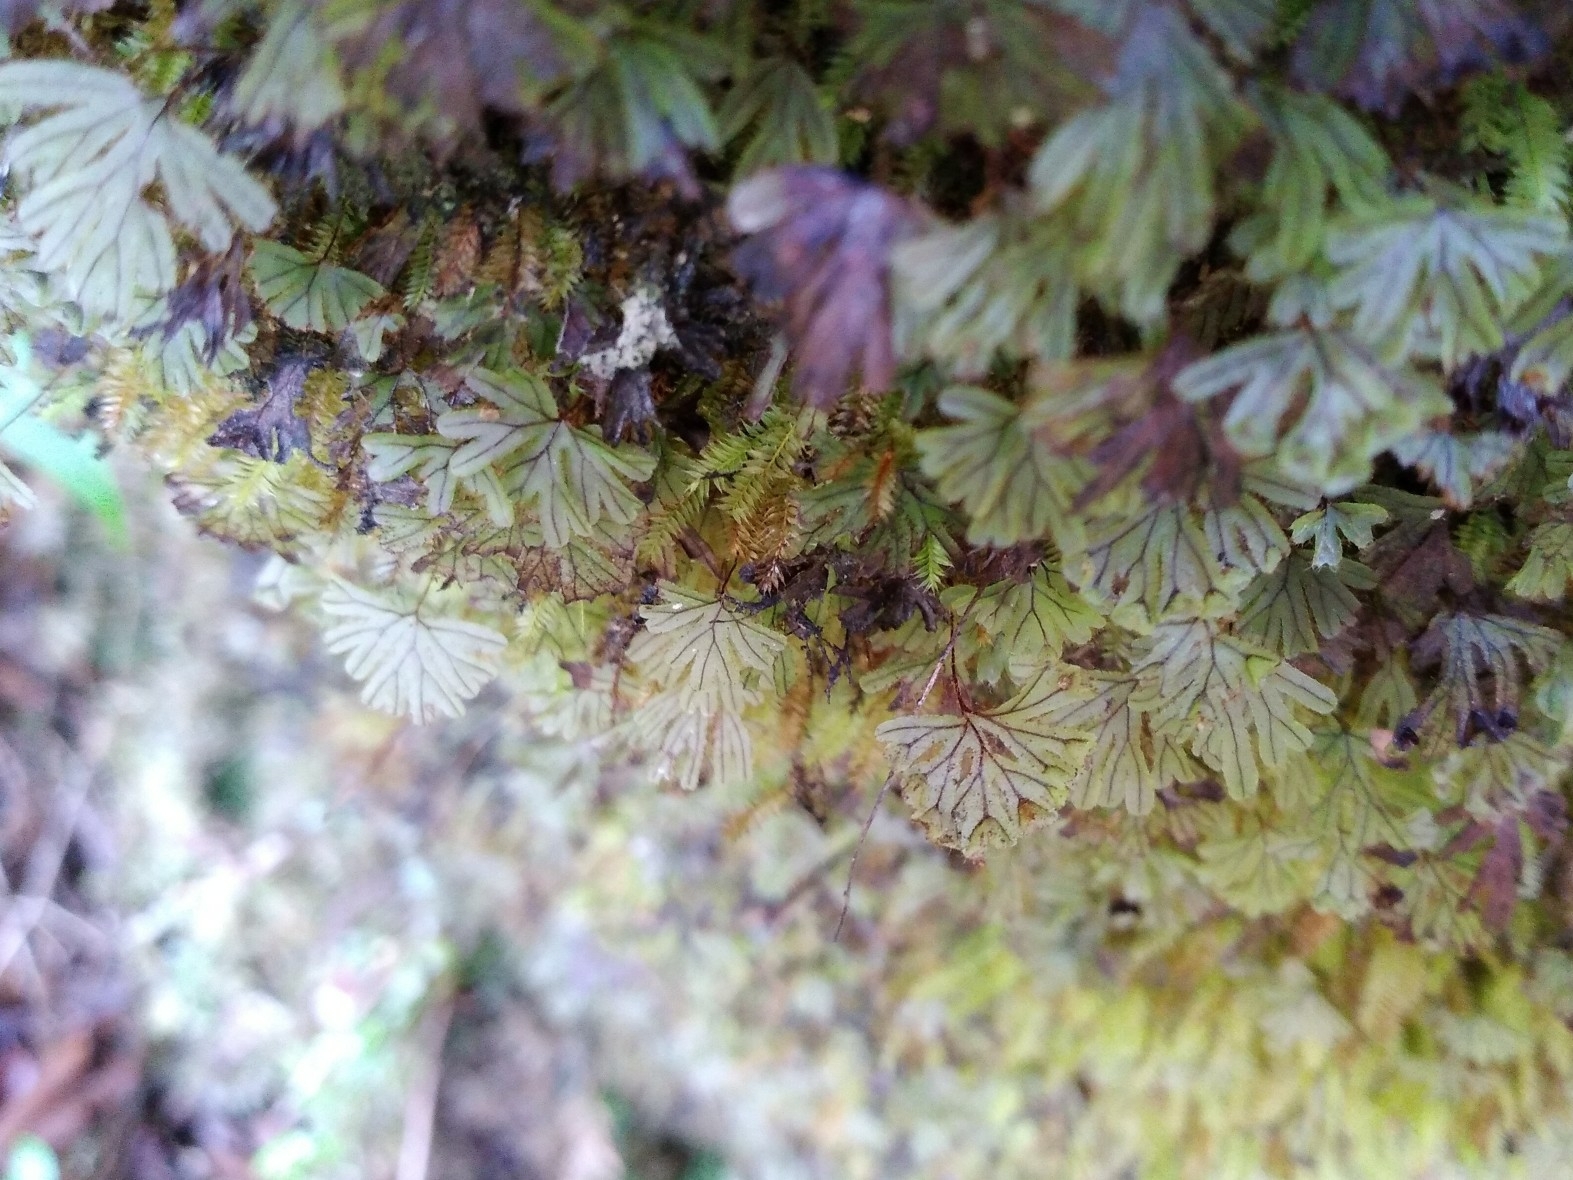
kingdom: Plantae
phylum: Tracheophyta
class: Polypodiopsida
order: Hymenophyllales
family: Hymenophyllaceae
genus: Hymenophyllum
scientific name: Hymenophyllum lyallii
